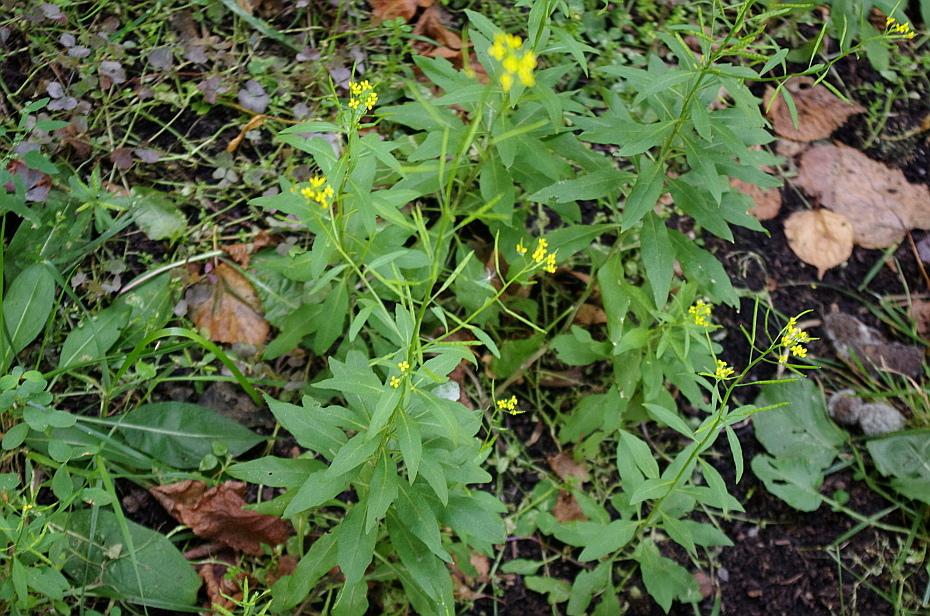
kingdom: Plantae
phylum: Tracheophyta
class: Magnoliopsida
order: Brassicales
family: Brassicaceae
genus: Erysimum
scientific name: Erysimum cheiranthoides
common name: Treacle mustard
